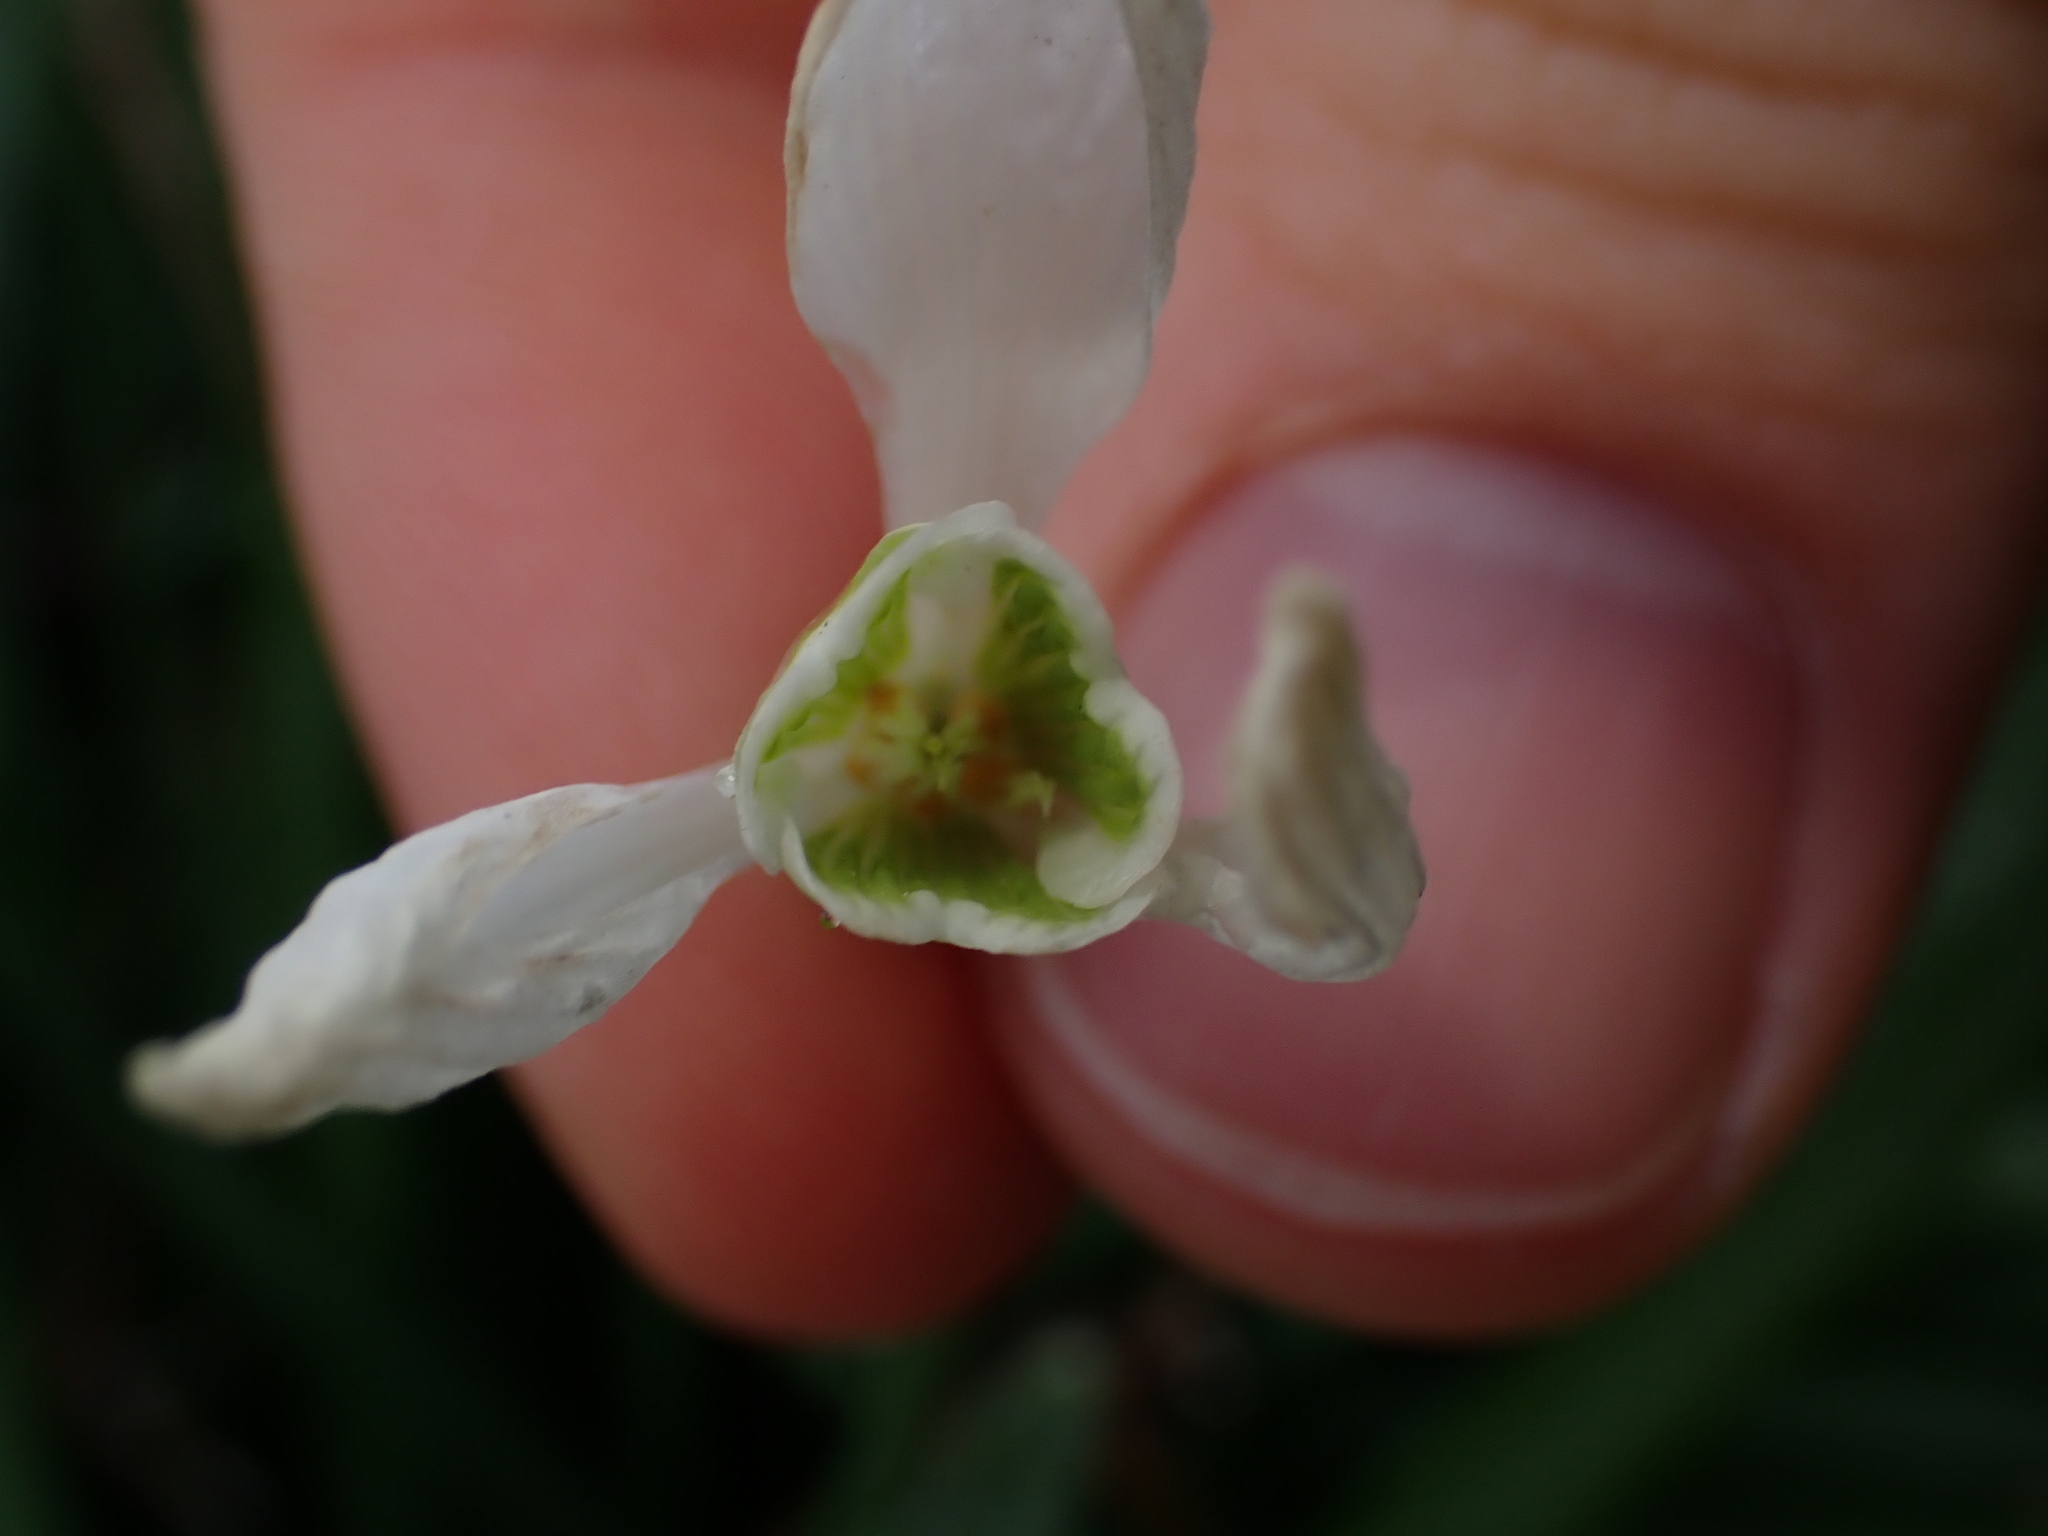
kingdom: Plantae
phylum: Tracheophyta
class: Liliopsida
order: Asparagales
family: Amaryllidaceae
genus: Galanthus
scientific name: Galanthus nivalis
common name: Snowdrop
